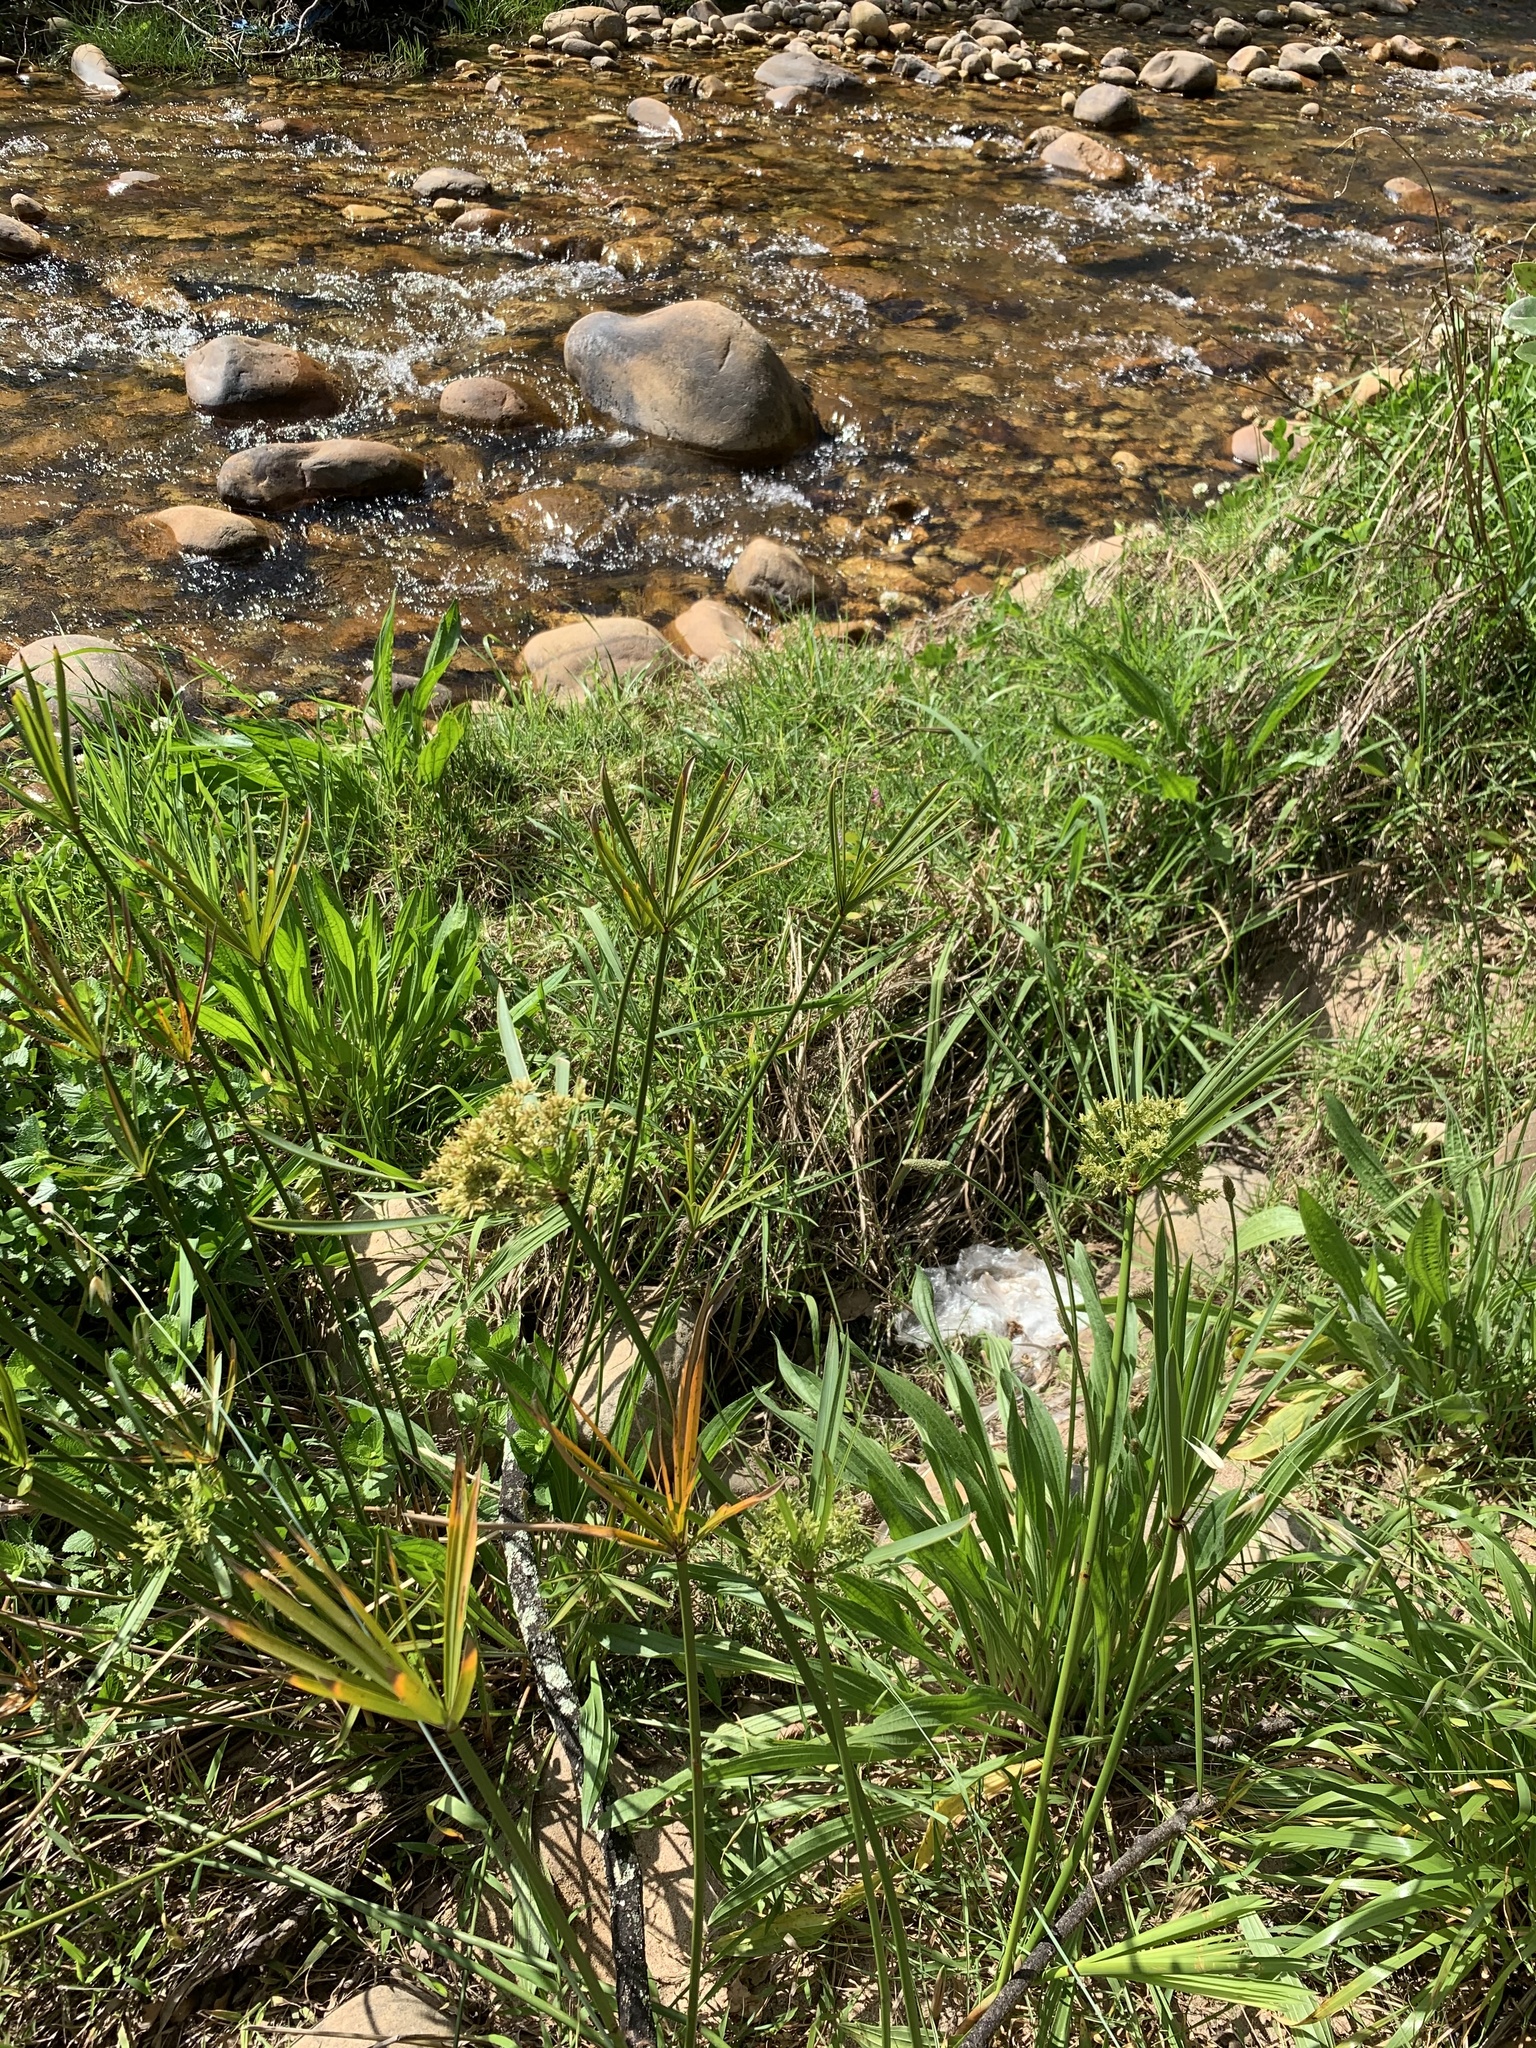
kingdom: Plantae
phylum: Tracheophyta
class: Liliopsida
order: Poales
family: Cyperaceae
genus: Cyperus
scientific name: Cyperus textilis
